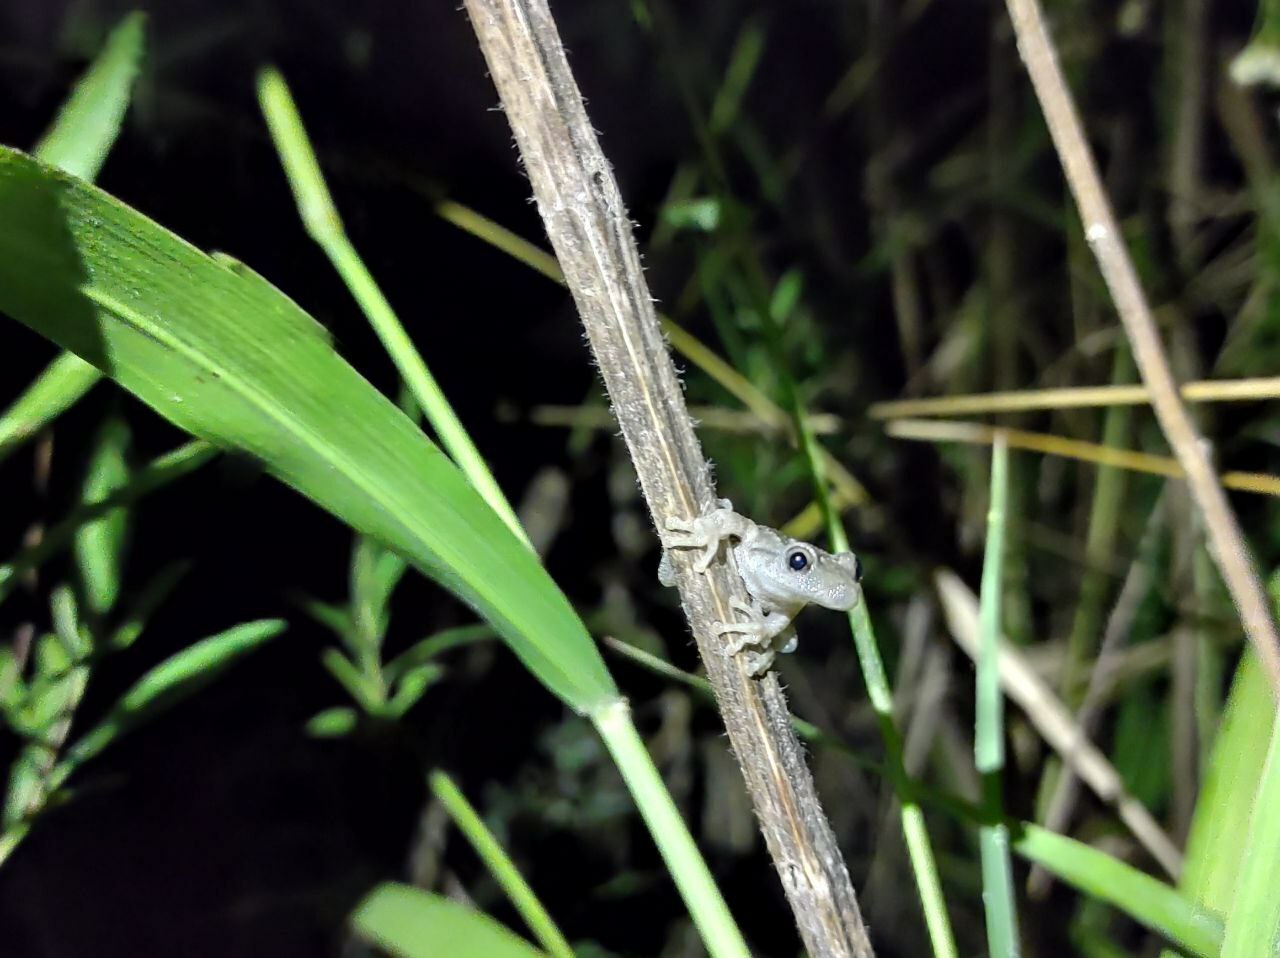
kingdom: Animalia
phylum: Chordata
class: Amphibia
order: Anura
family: Hylidae
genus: Scinax
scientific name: Scinax granulatus
